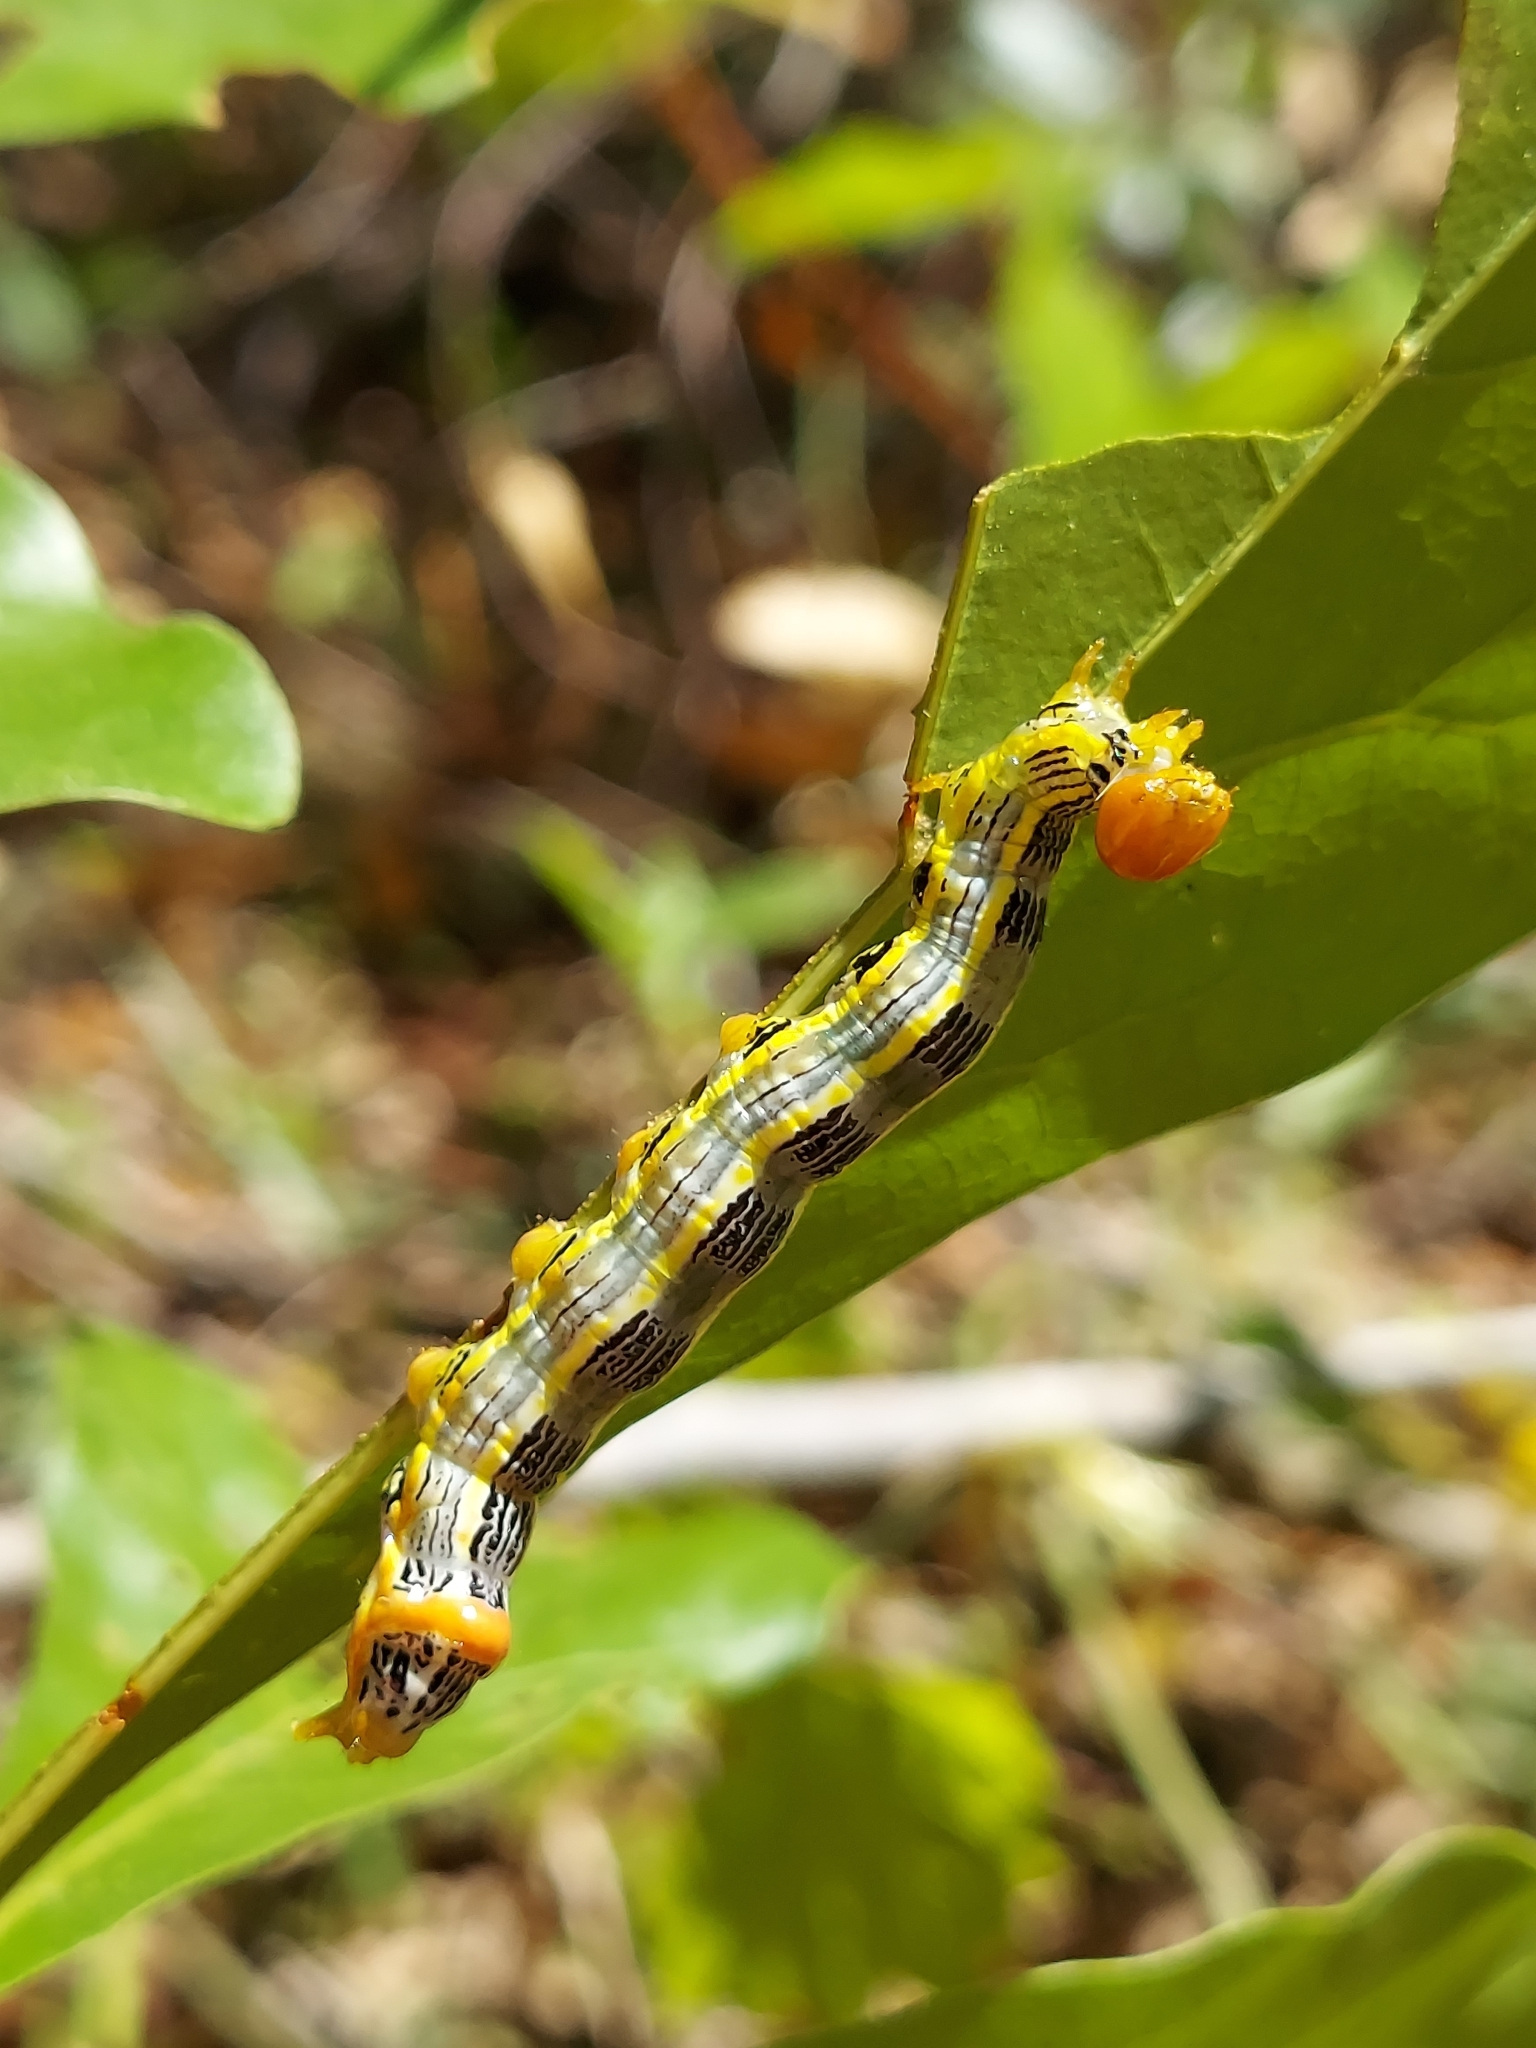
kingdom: Animalia
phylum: Arthropoda
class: Insecta
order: Lepidoptera
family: Notodontidae
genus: Symmerista
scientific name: Symmerista albifrons
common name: White-headed prominent
